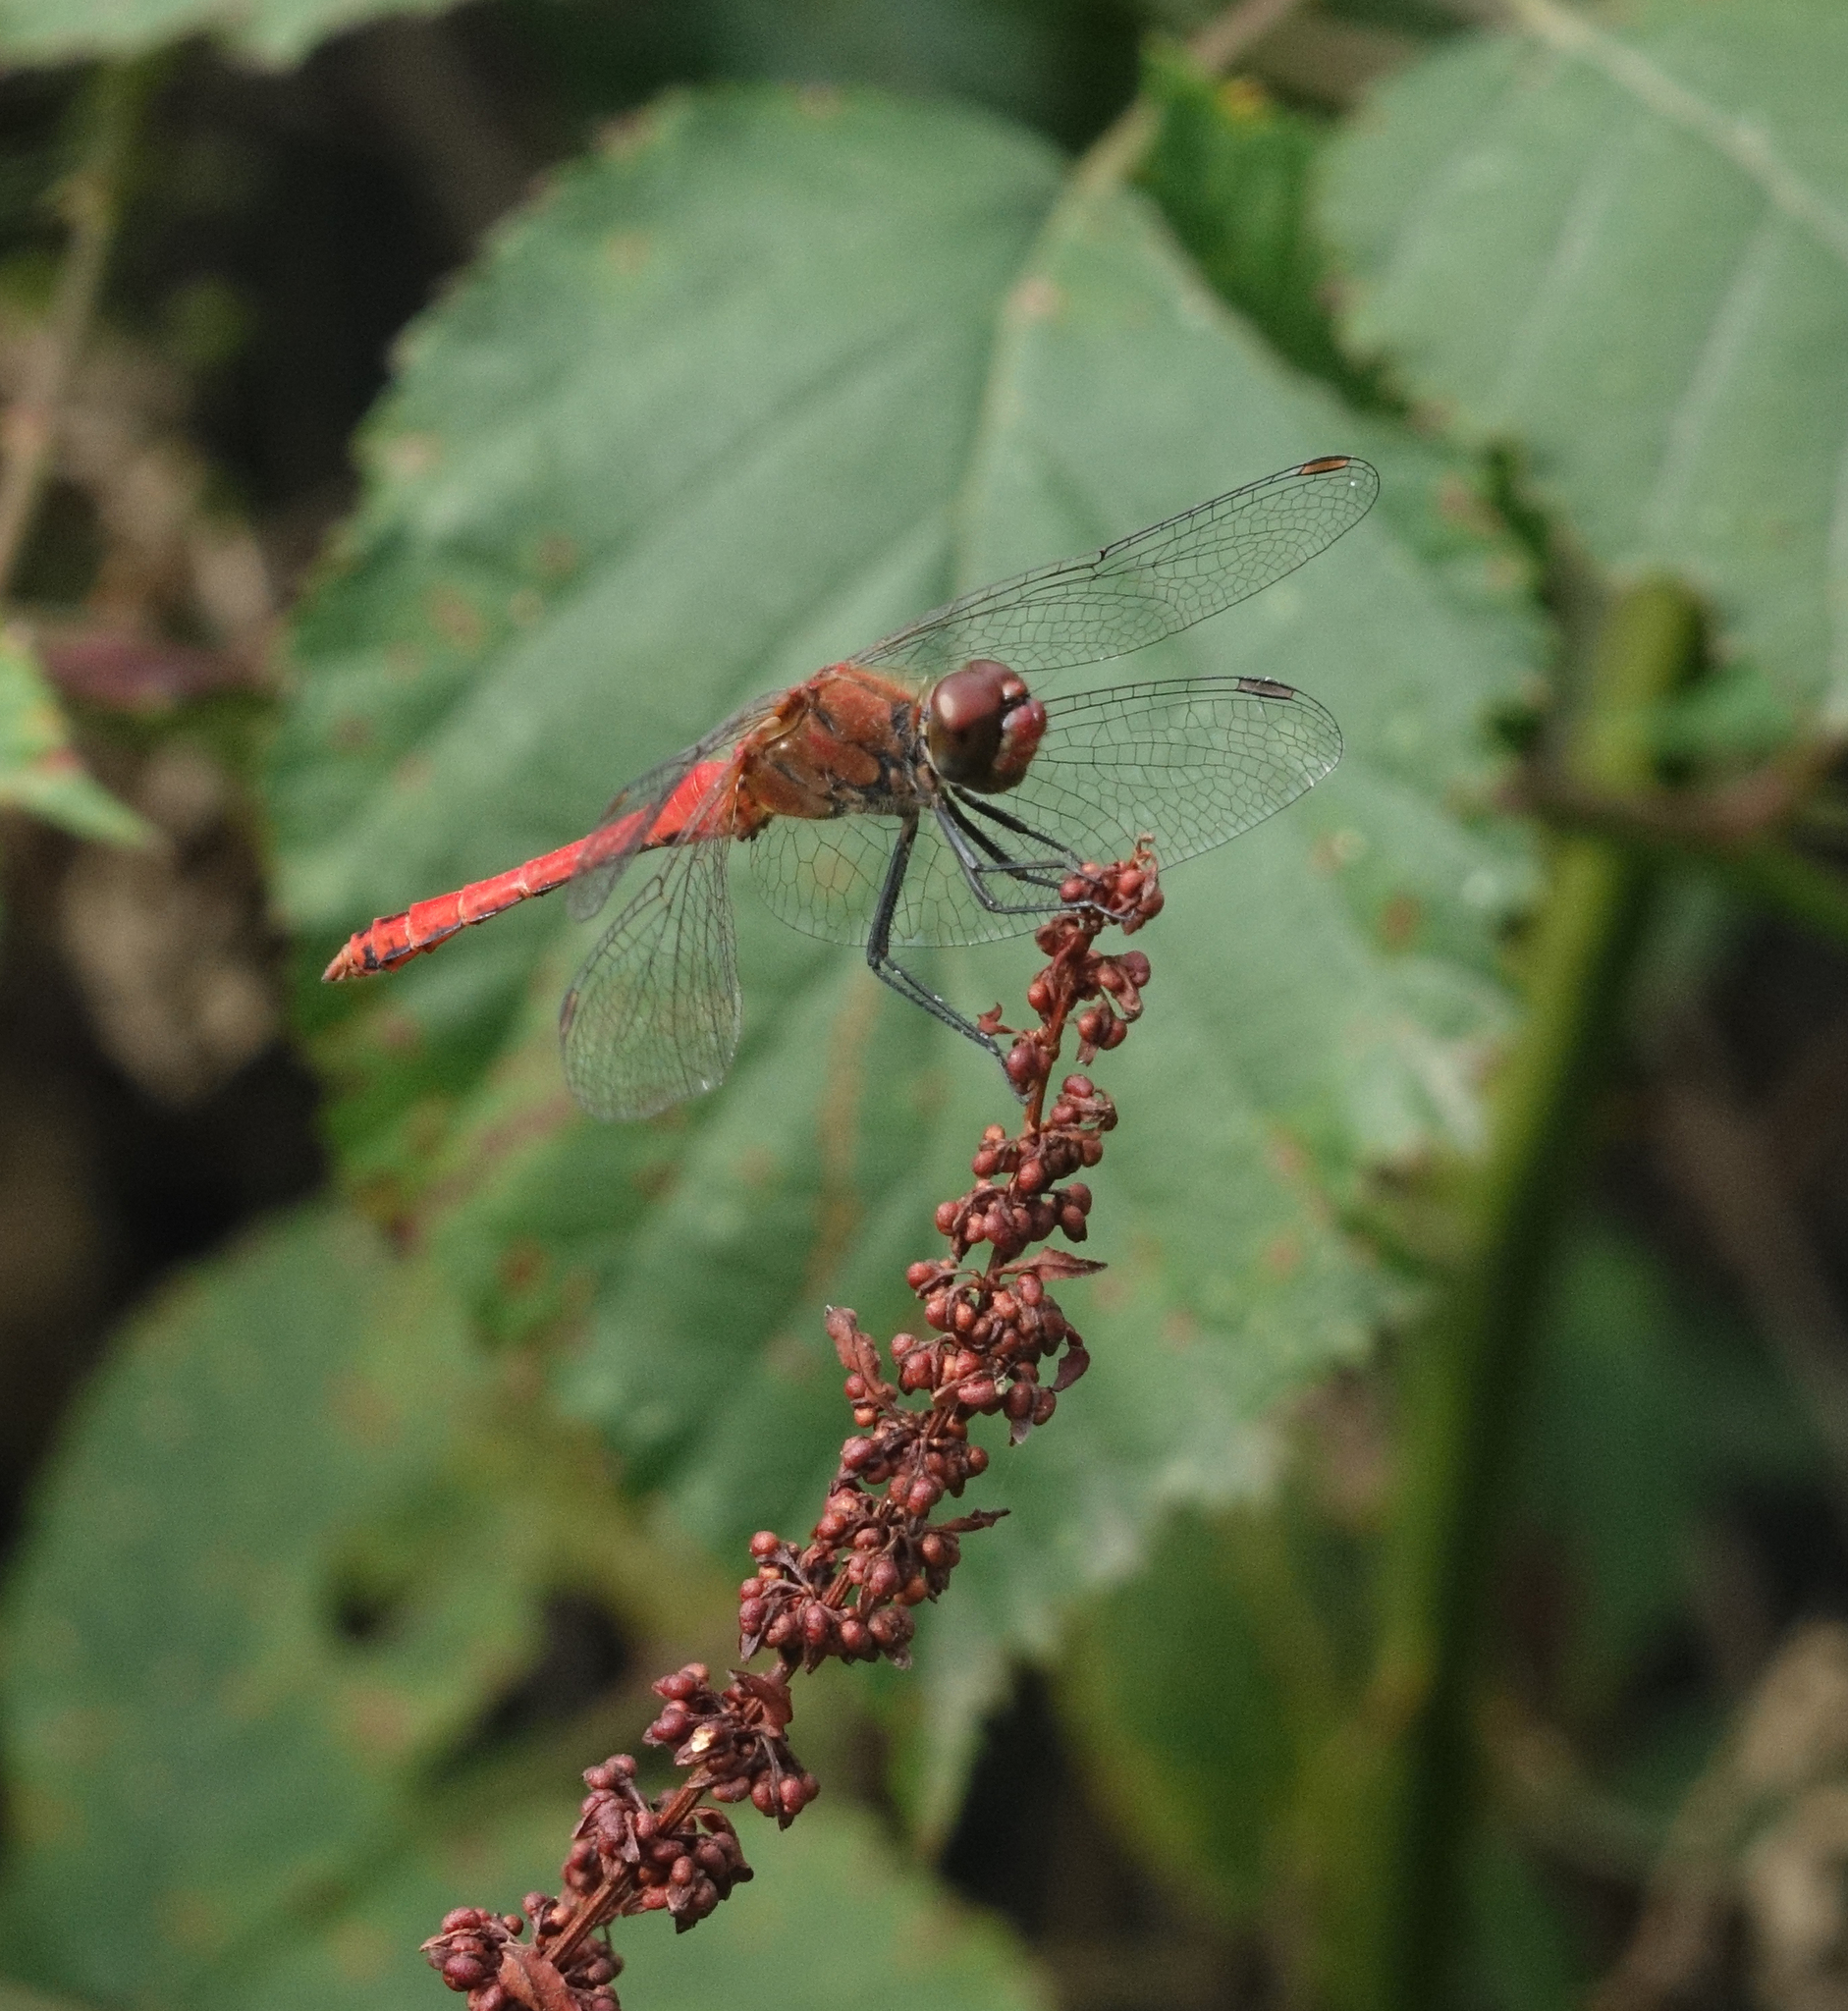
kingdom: Animalia
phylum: Arthropoda
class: Insecta
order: Odonata
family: Libellulidae
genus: Sympetrum
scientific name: Sympetrum sanguineum
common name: Ruddy darter
